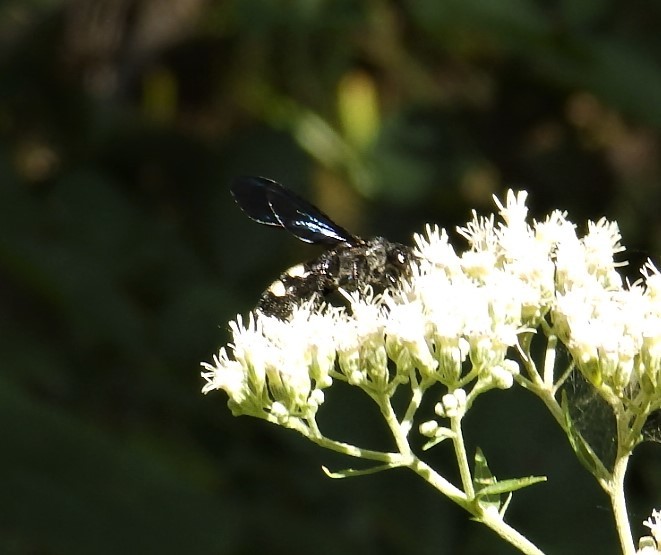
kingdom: Animalia
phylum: Arthropoda
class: Insecta
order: Hymenoptera
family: Scoliidae
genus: Scolia
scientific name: Scolia bicincta
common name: Double-banded scoliid wasp
